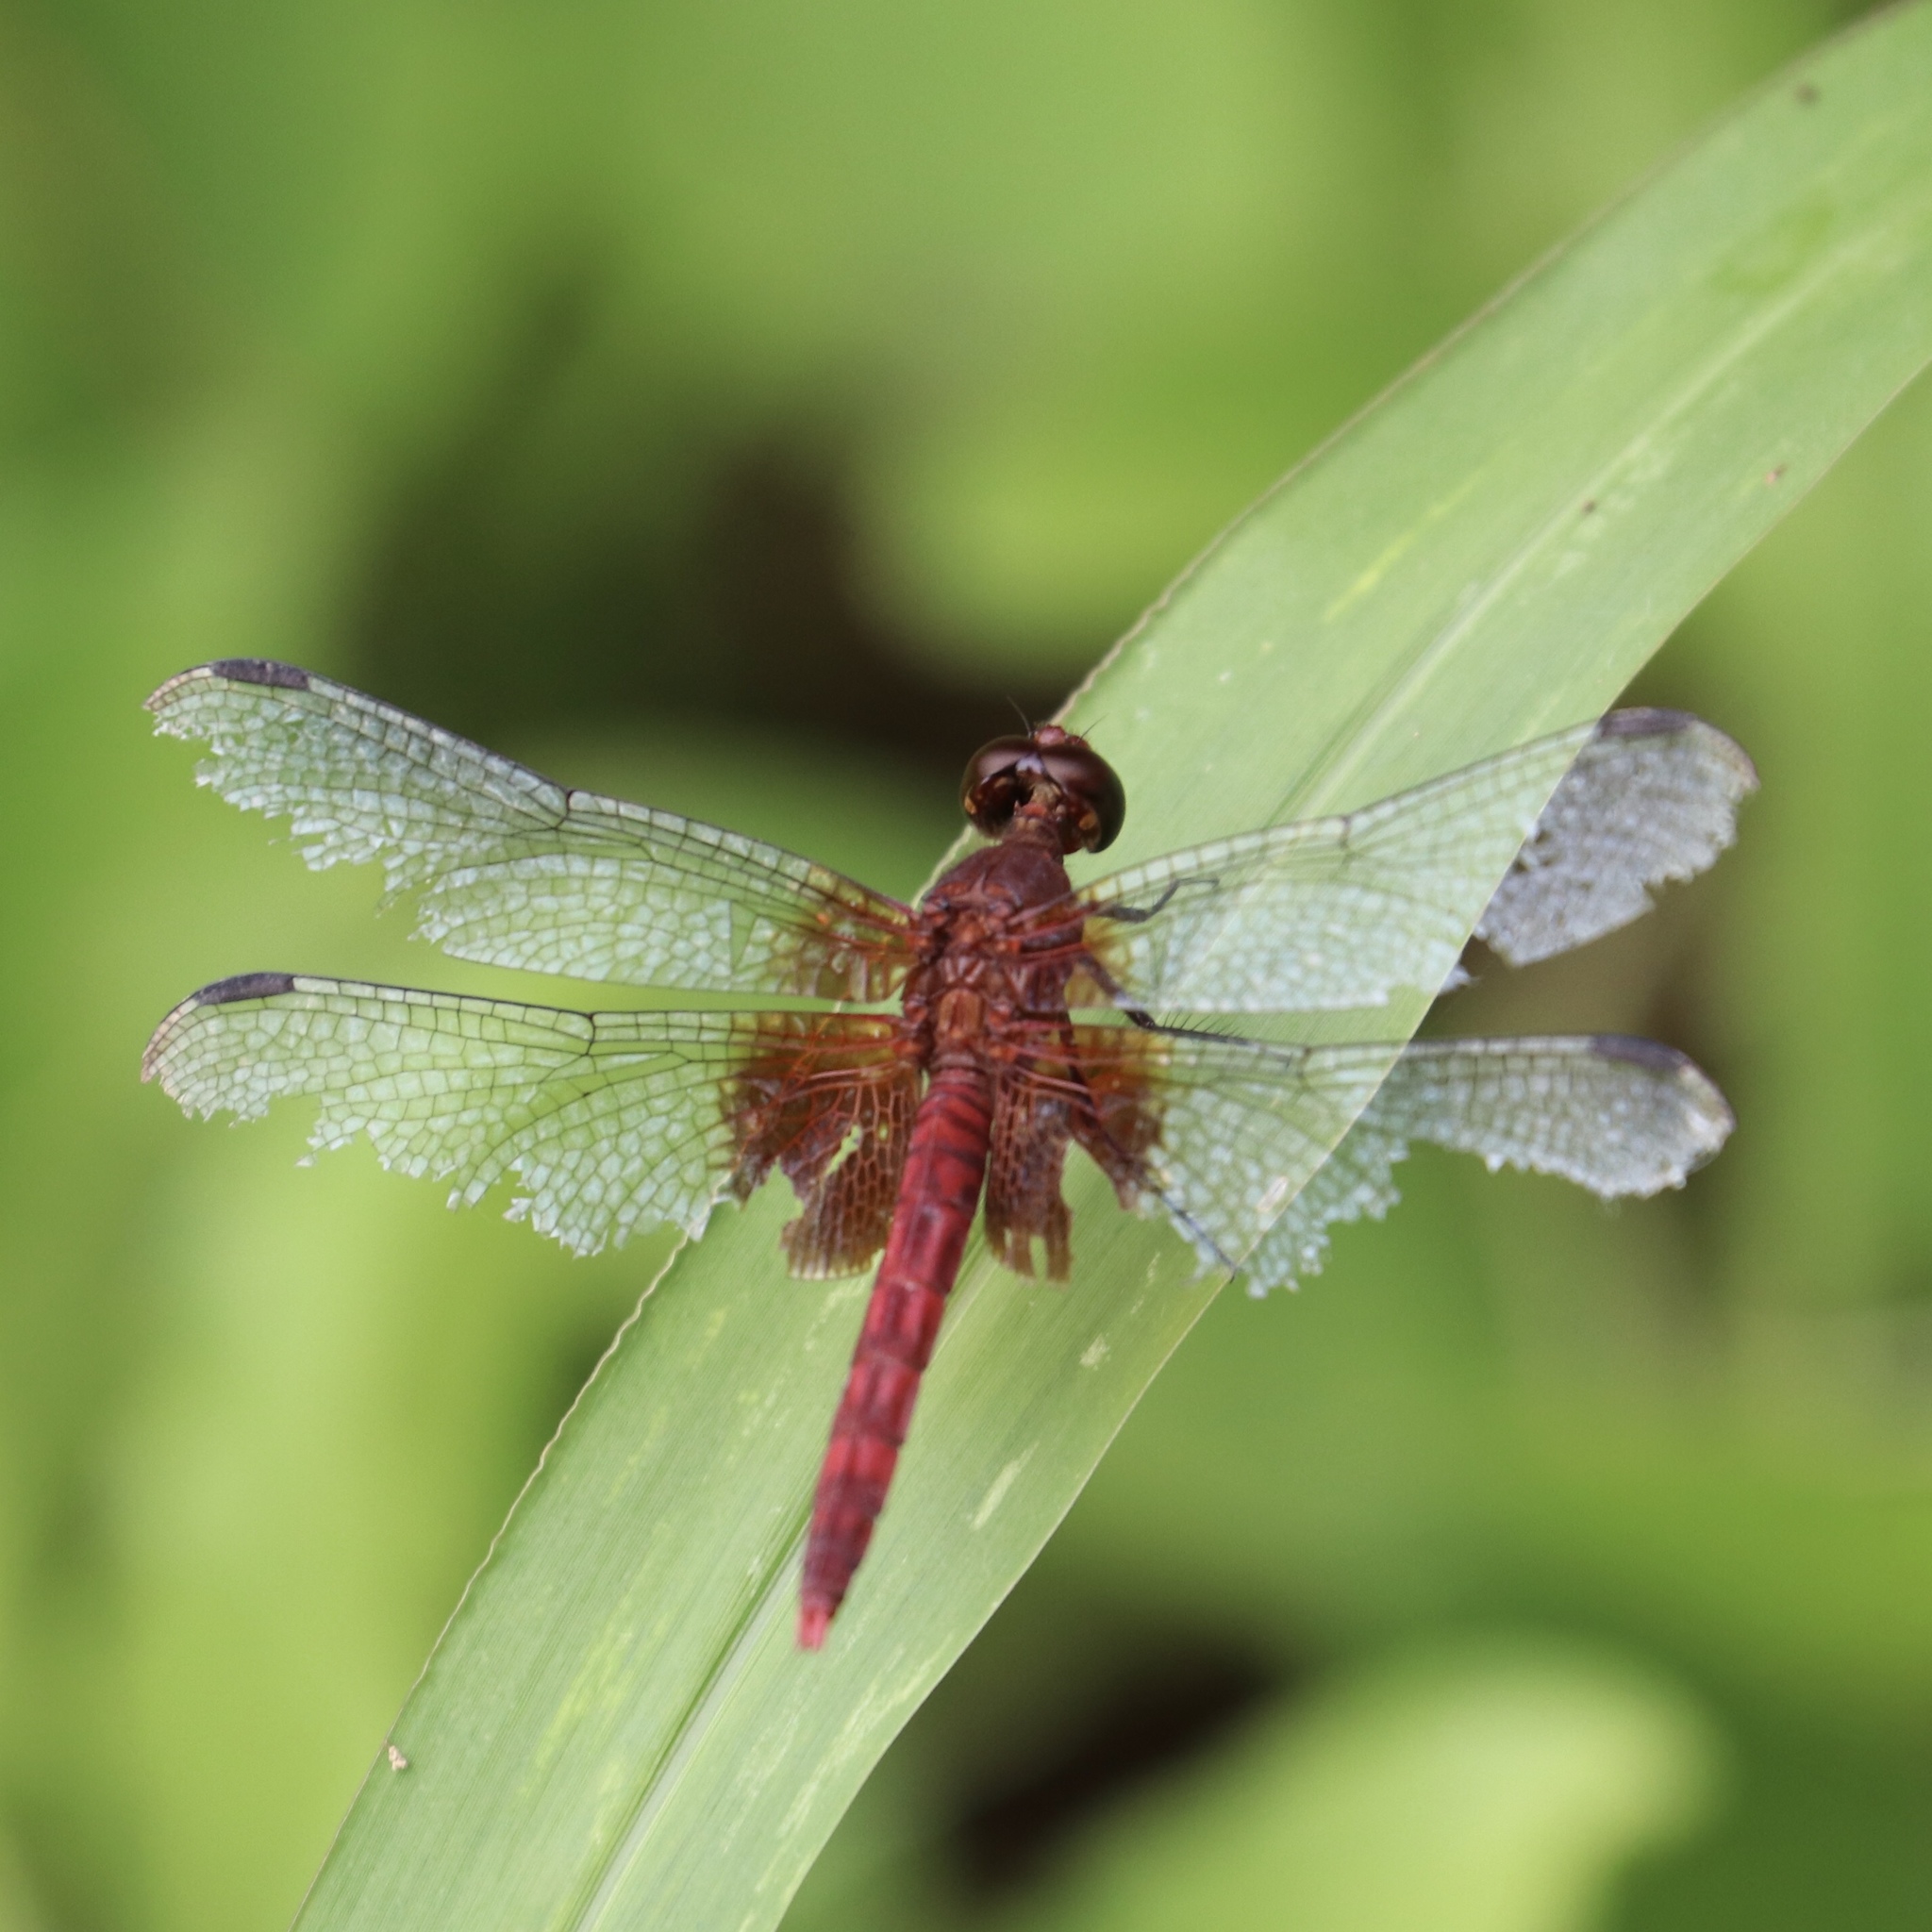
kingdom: Animalia
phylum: Arthropoda
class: Insecta
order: Odonata
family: Libellulidae
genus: Erythrodiplax
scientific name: Erythrodiplax fervida
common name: Red-mantled dragonlet
